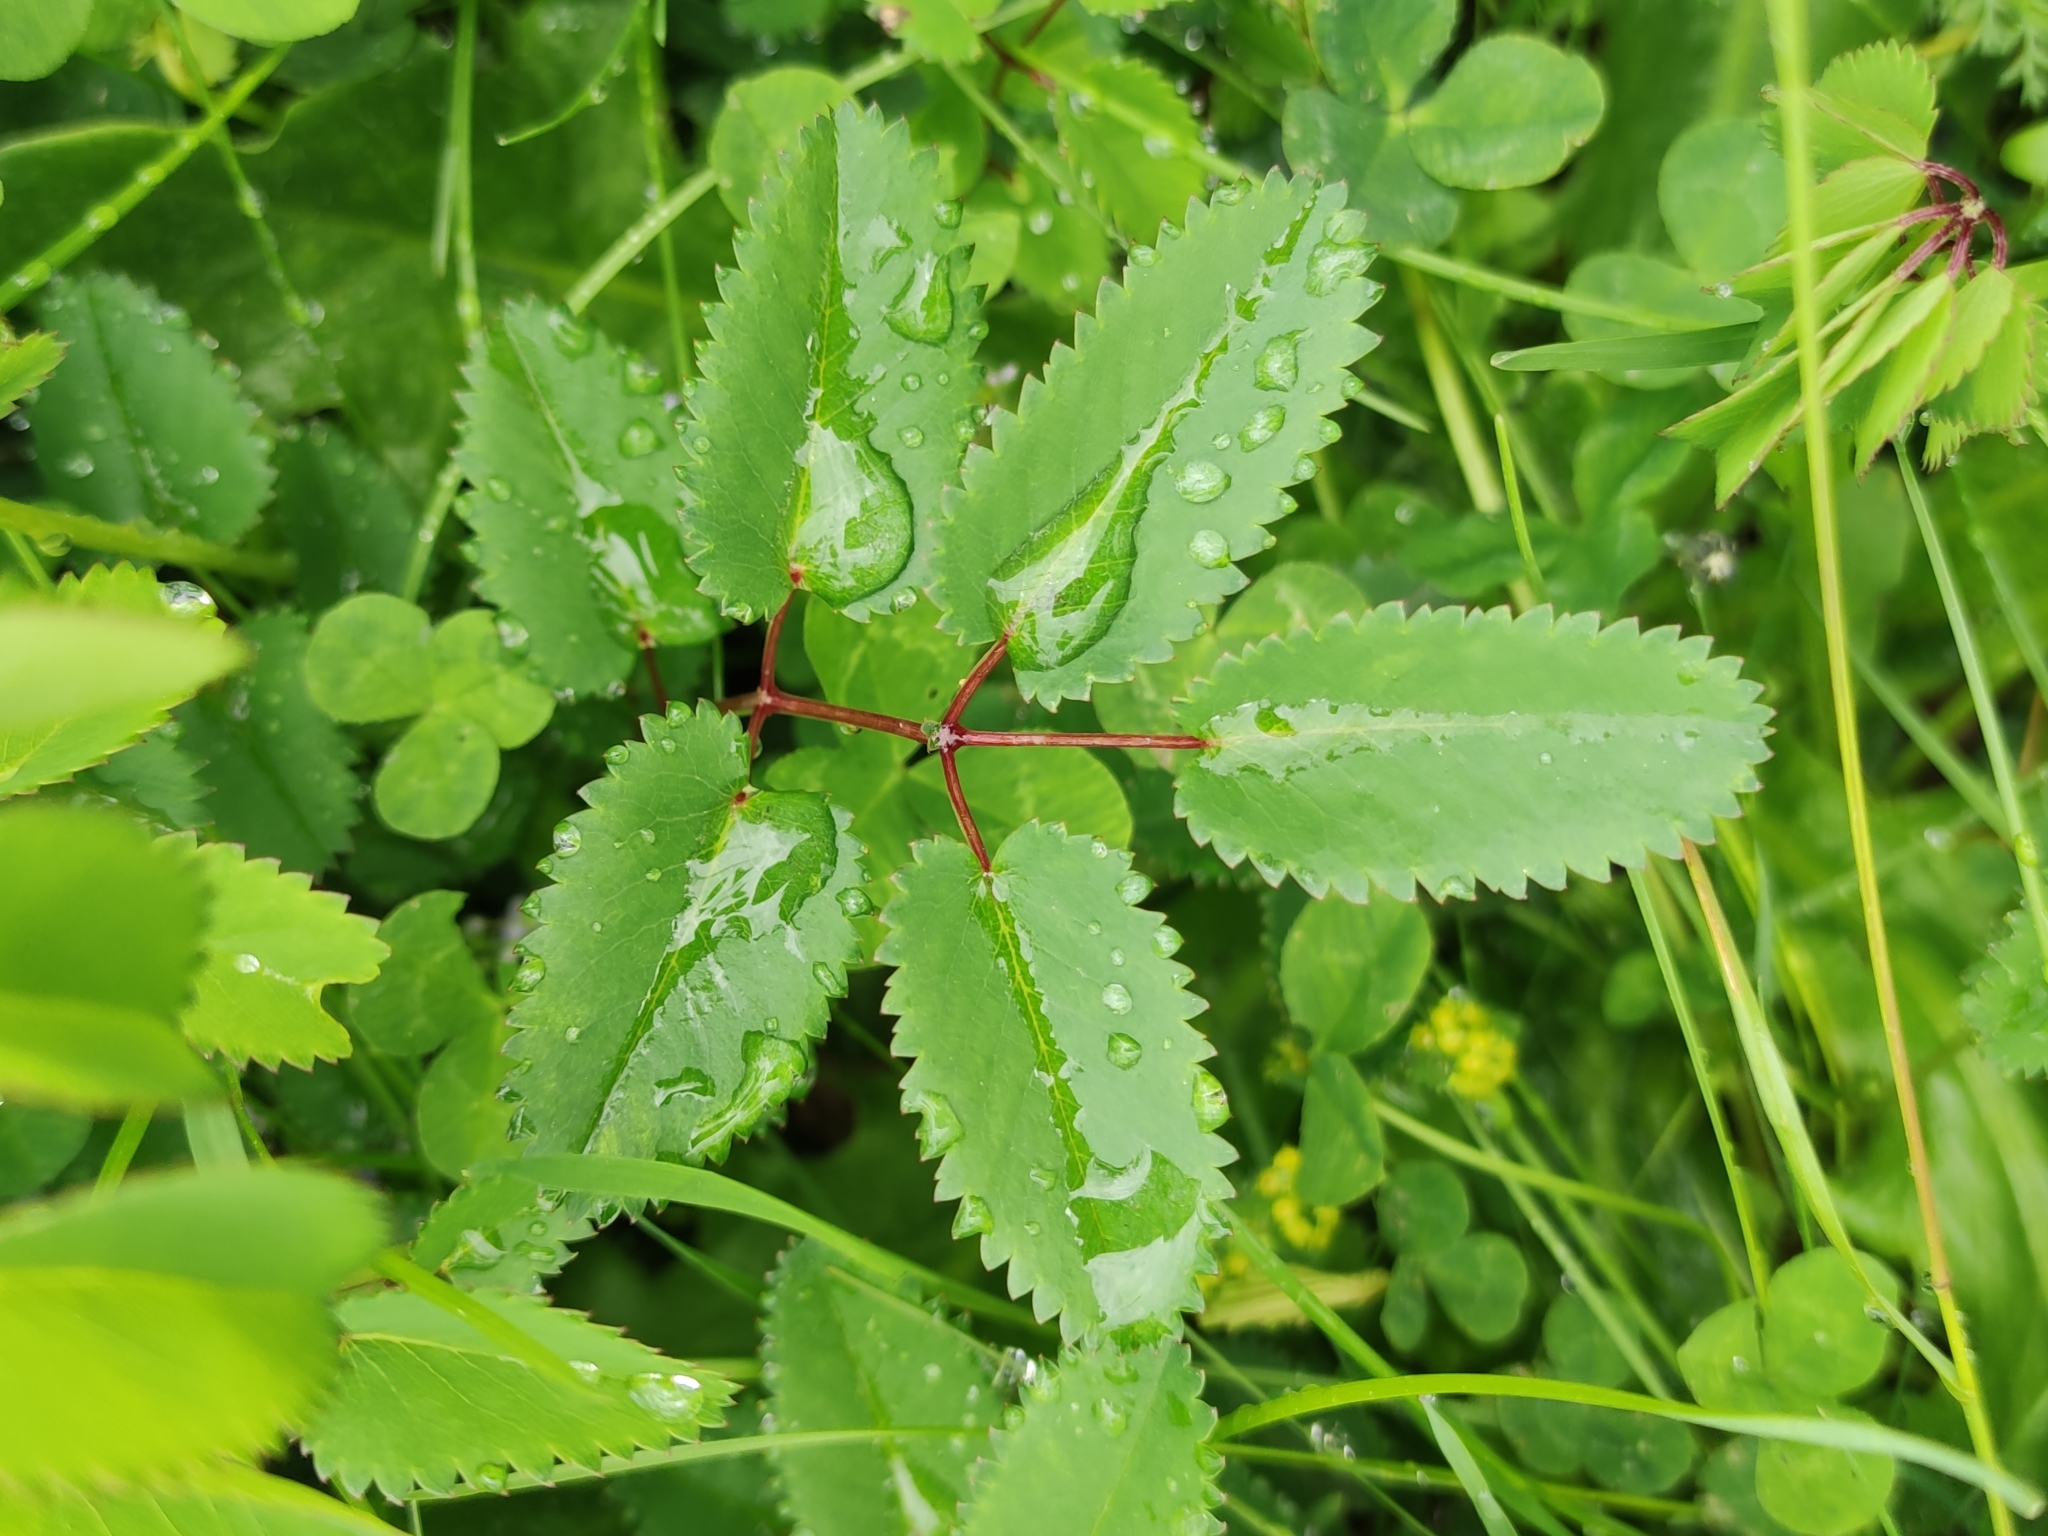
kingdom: Plantae
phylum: Tracheophyta
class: Magnoliopsida
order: Rosales
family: Rosaceae
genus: Sanguisorba
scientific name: Sanguisorba officinalis
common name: Great burnet
